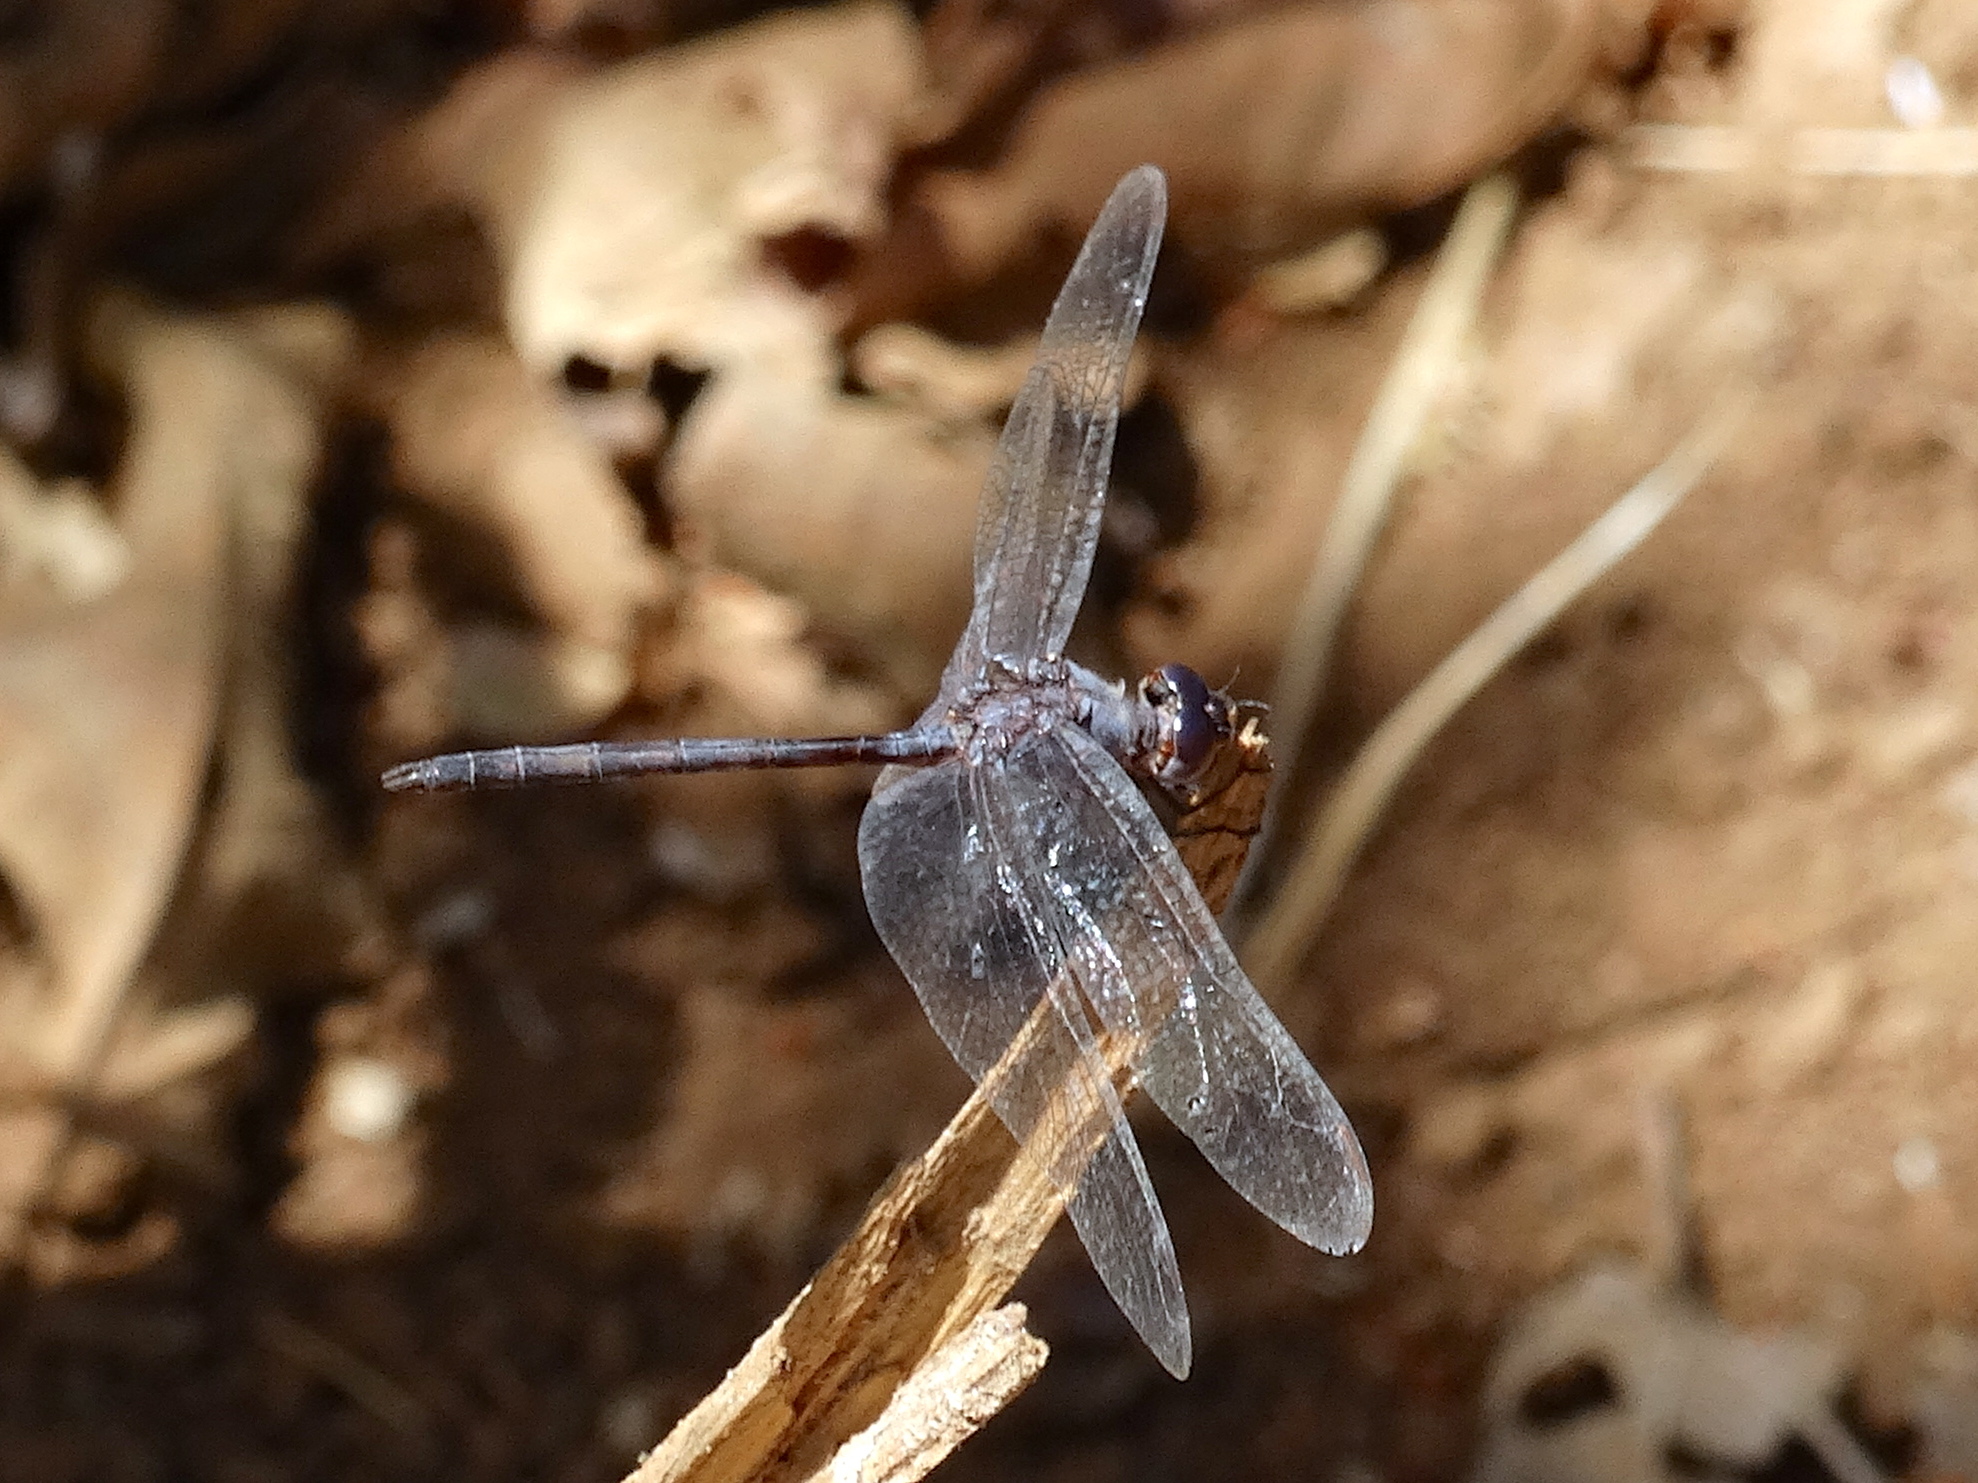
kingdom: Animalia
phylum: Arthropoda
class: Insecta
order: Odonata
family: Libellulidae
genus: Dythemis
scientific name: Dythemis nigrescens
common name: Black setwing
